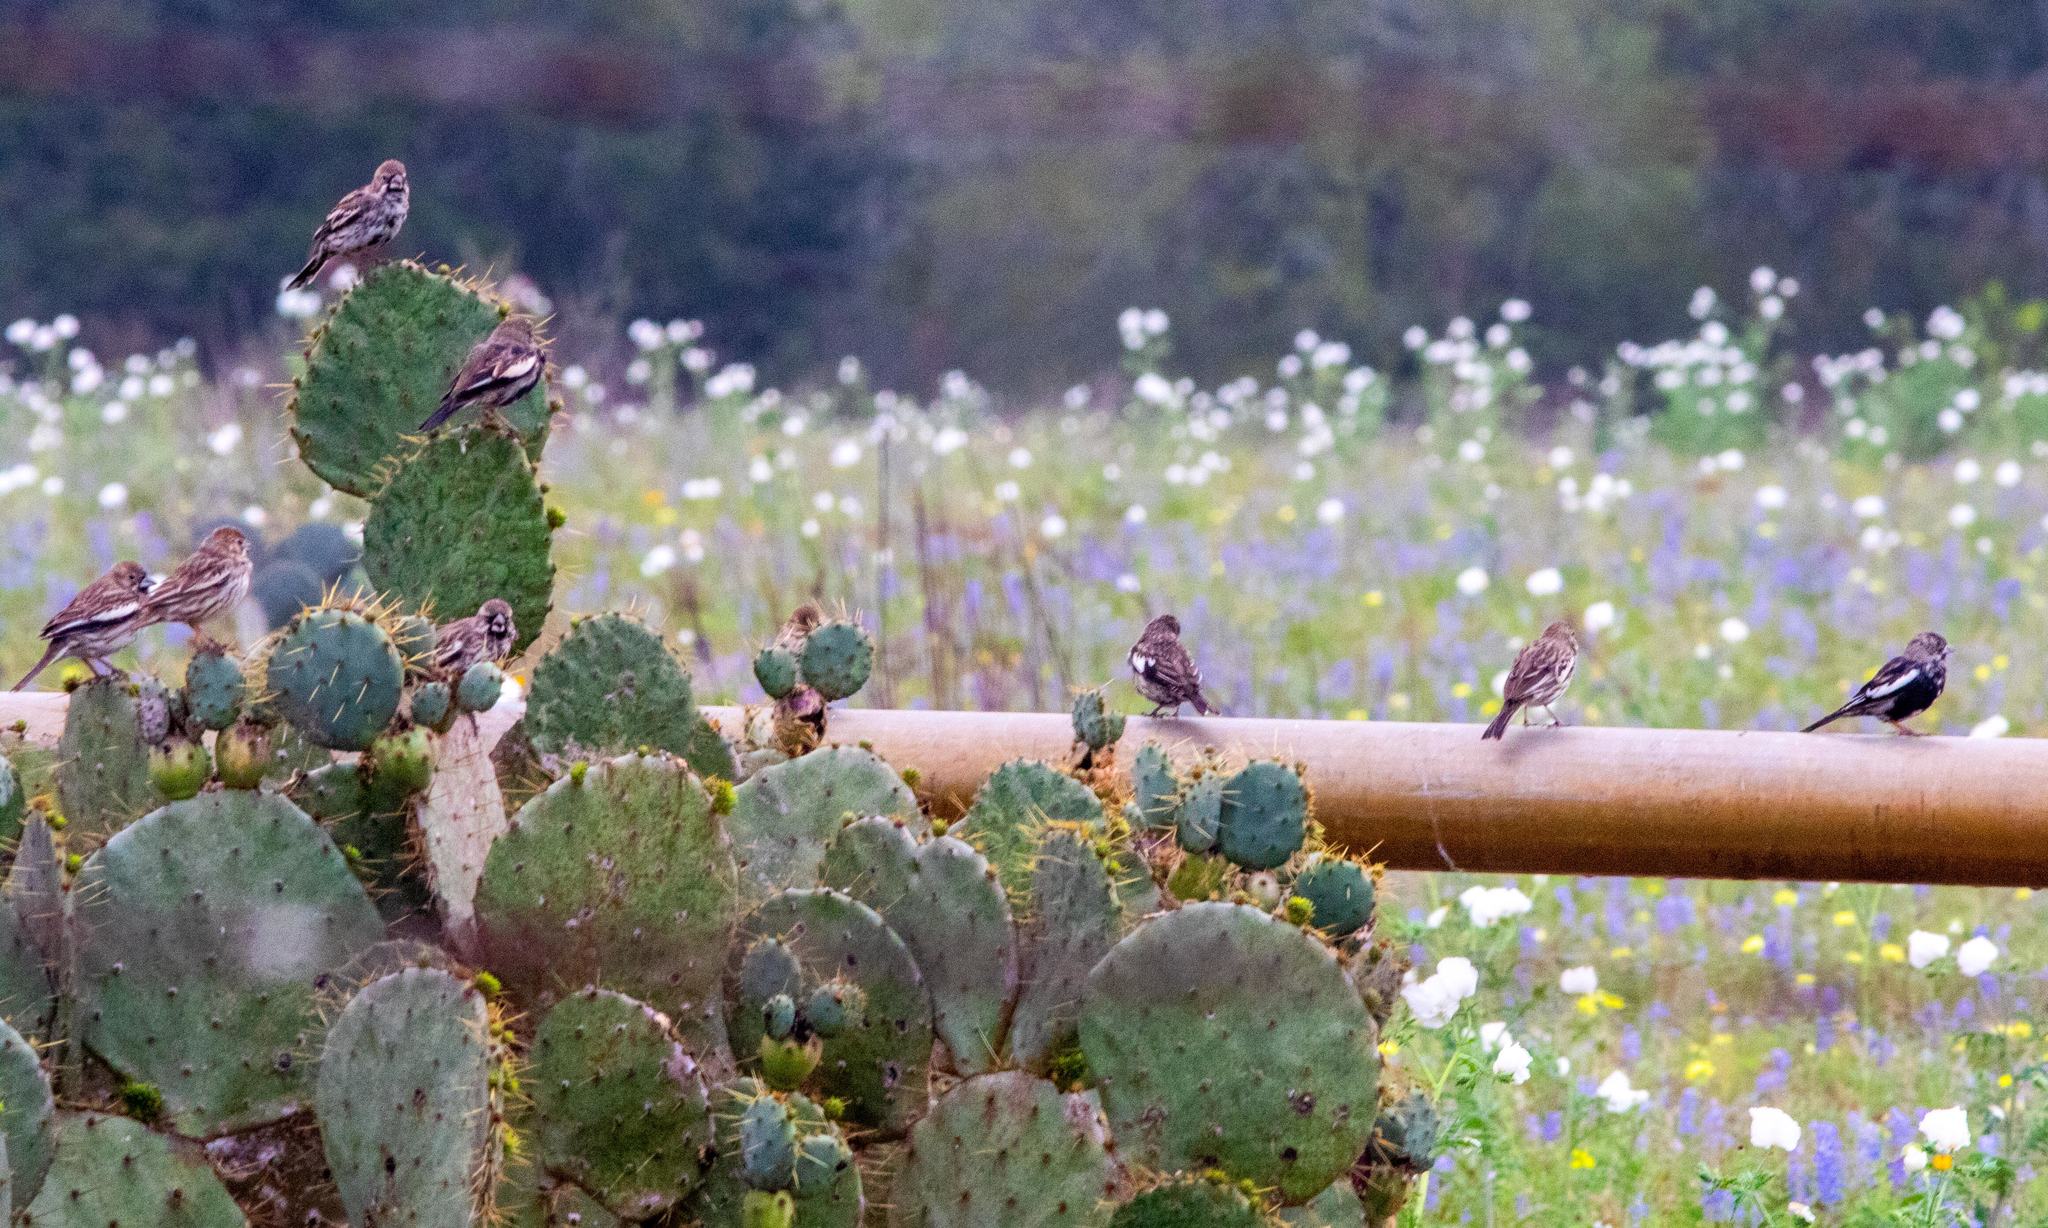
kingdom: Animalia
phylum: Chordata
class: Aves
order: Passeriformes
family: Passerellidae
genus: Calamospiza
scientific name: Calamospiza melanocorys
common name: Lark bunting
